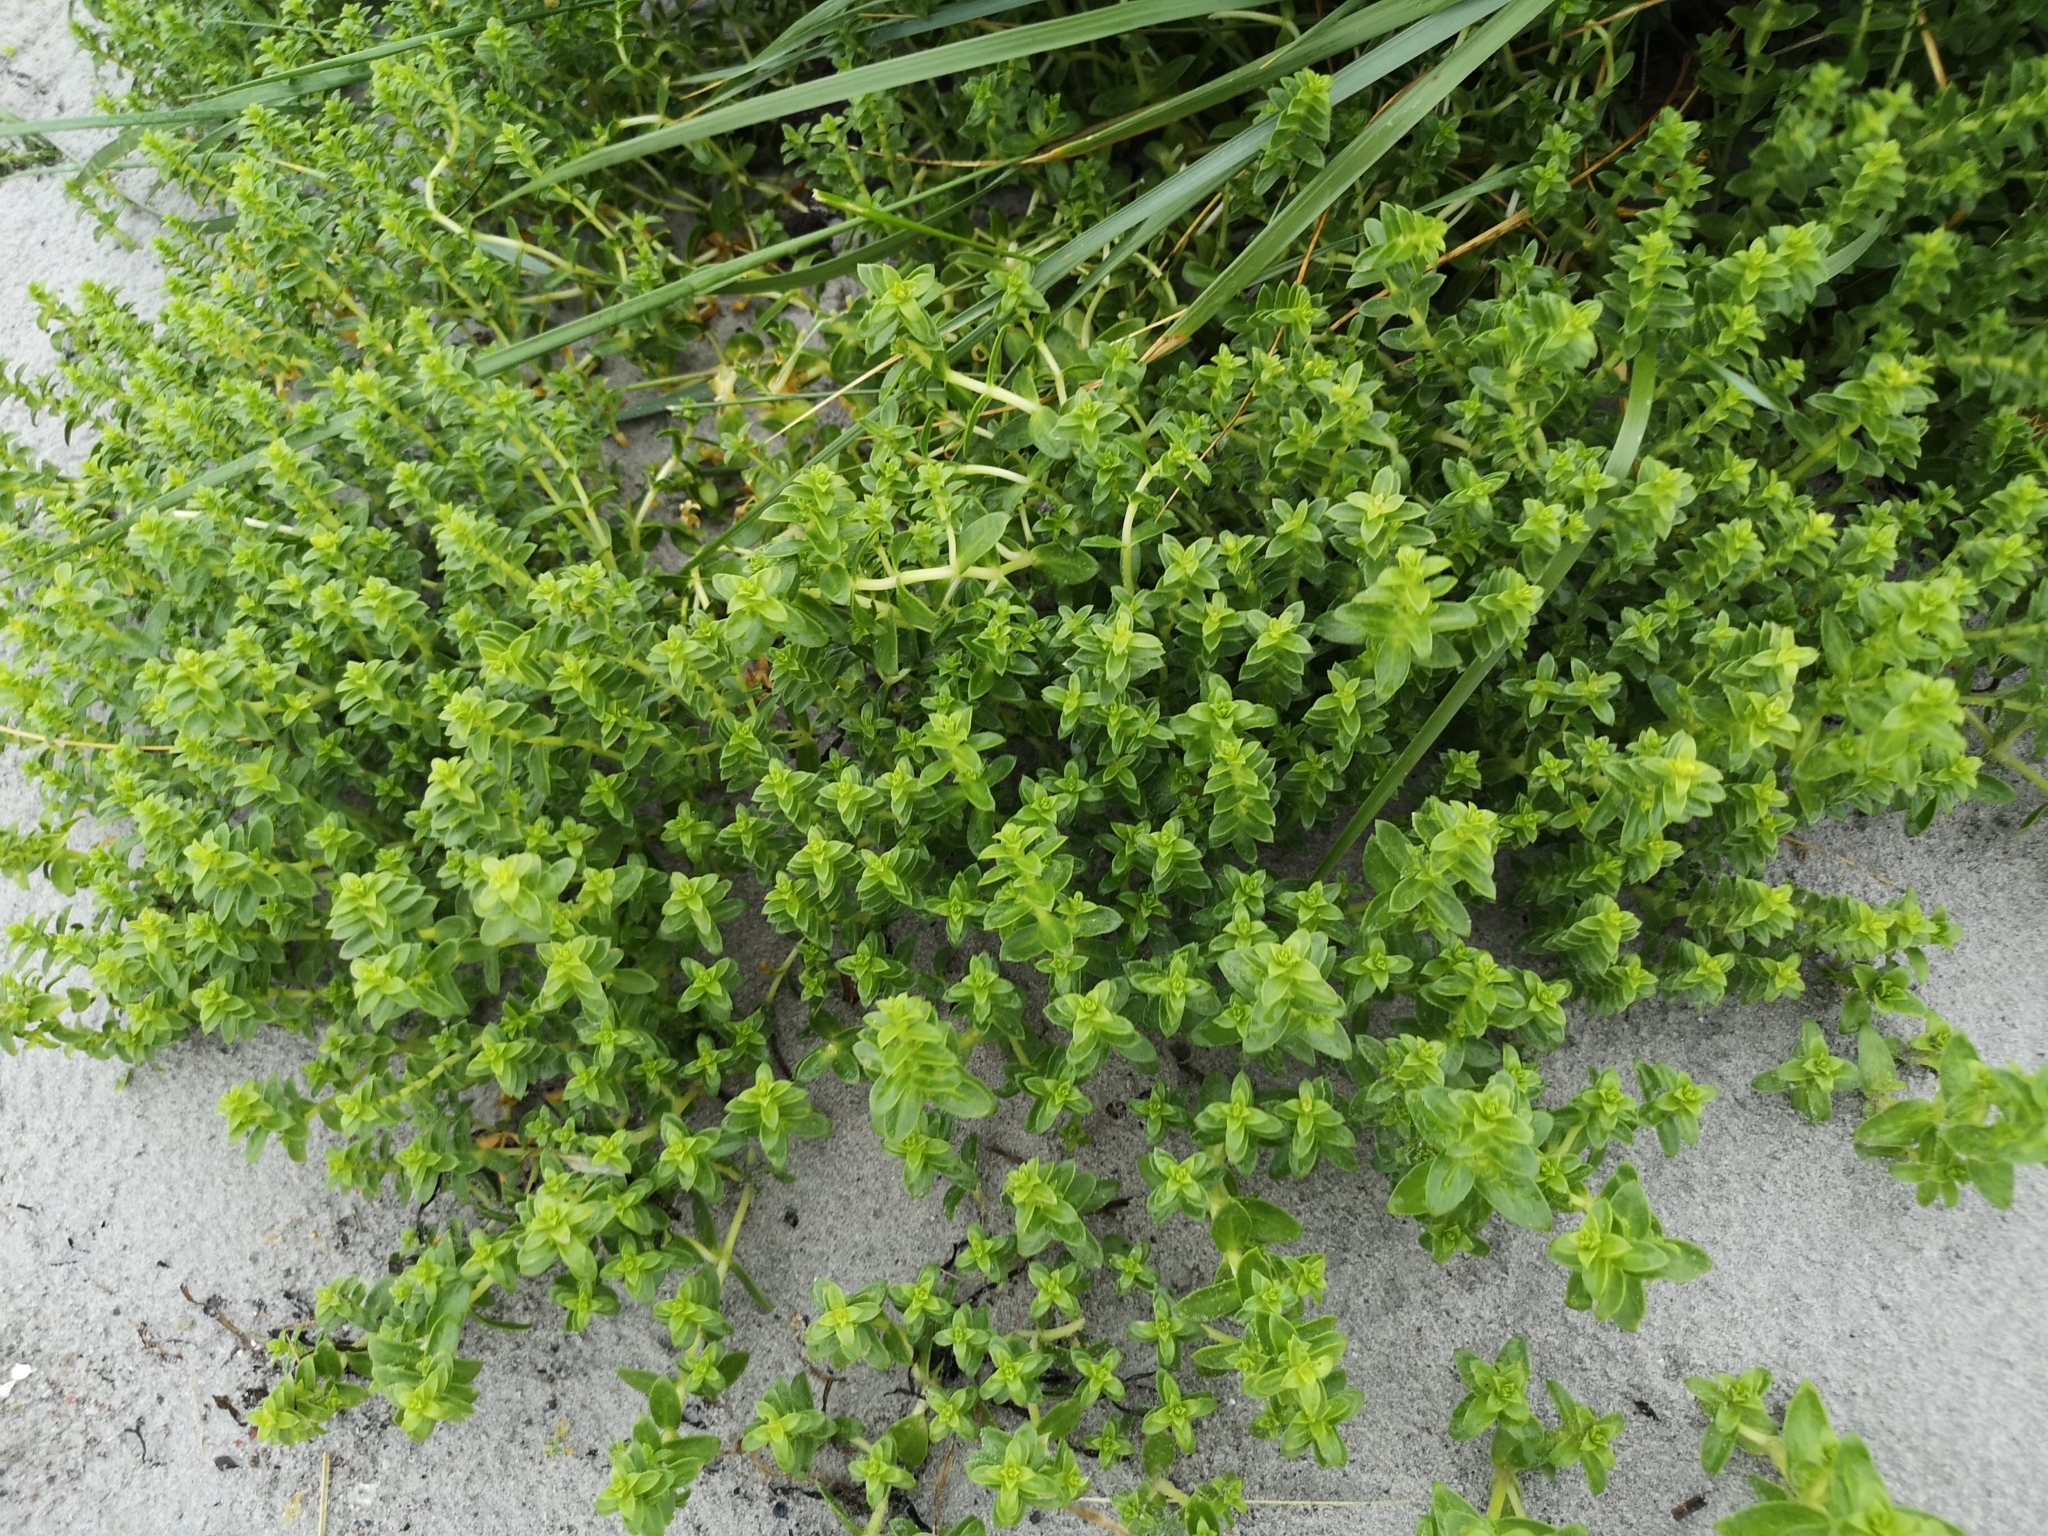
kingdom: Plantae
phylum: Tracheophyta
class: Magnoliopsida
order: Caryophyllales
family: Caryophyllaceae
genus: Honckenya
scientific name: Honckenya peploides
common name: Sea sandwort
